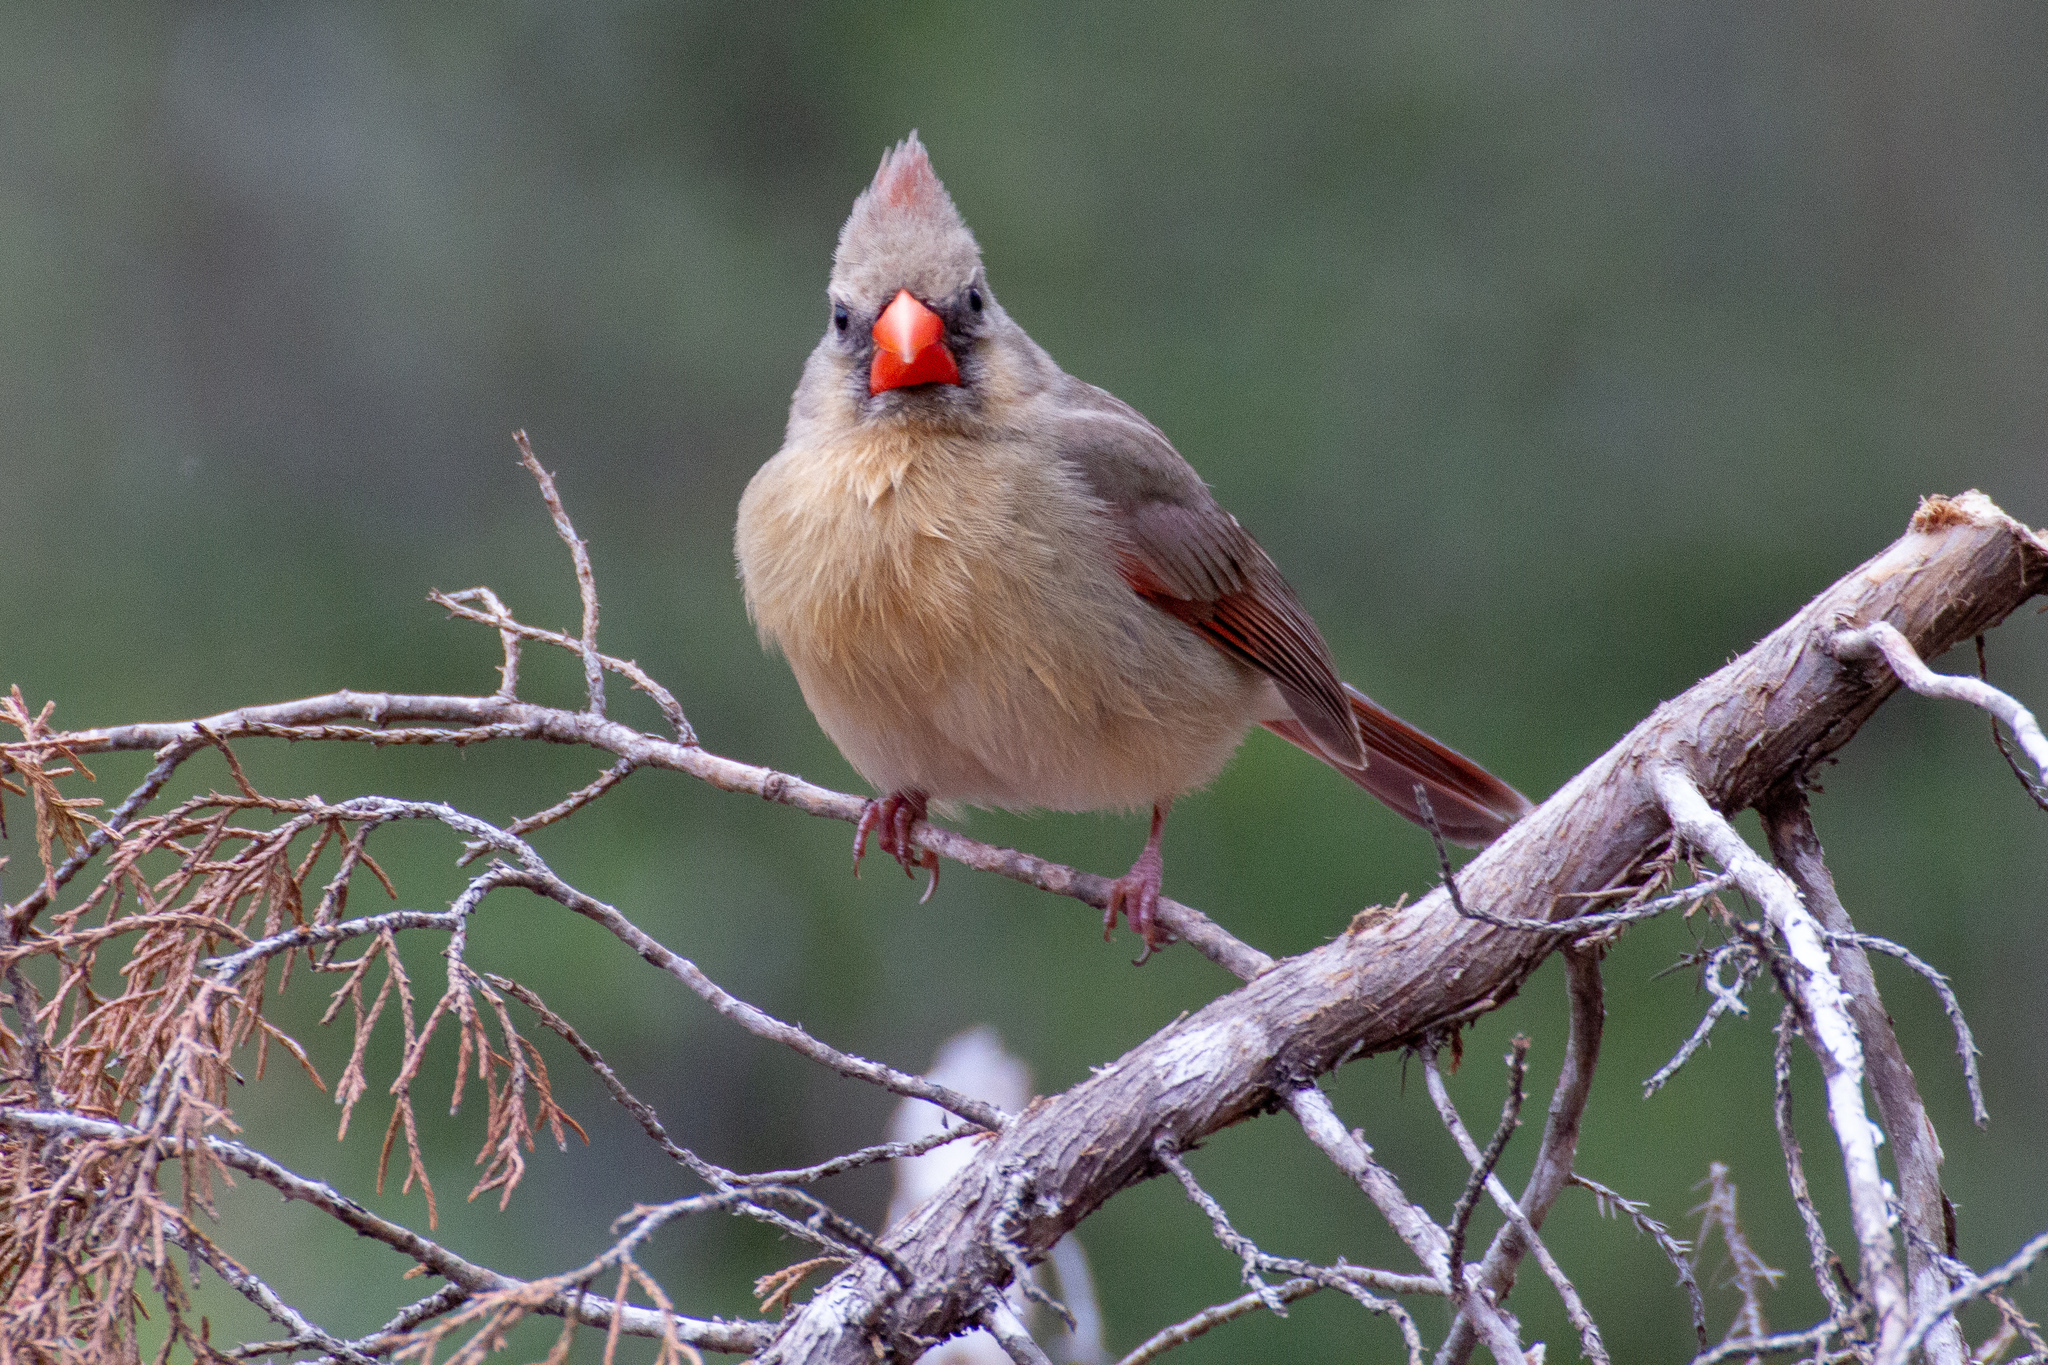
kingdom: Animalia
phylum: Chordata
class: Aves
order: Passeriformes
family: Cardinalidae
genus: Cardinalis
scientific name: Cardinalis cardinalis
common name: Northern cardinal
